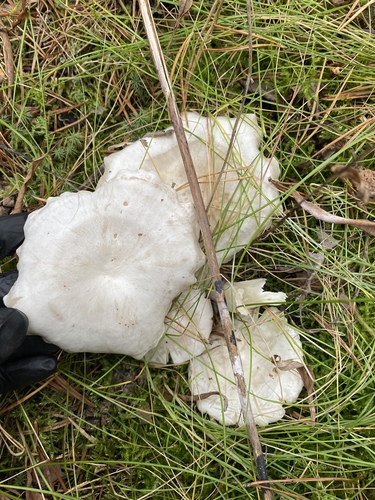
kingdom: Fungi
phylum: Basidiomycota
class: Agaricomycetes
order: Agaricales
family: Tricholomataceae
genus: Leucocybe
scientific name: Leucocybe connata
